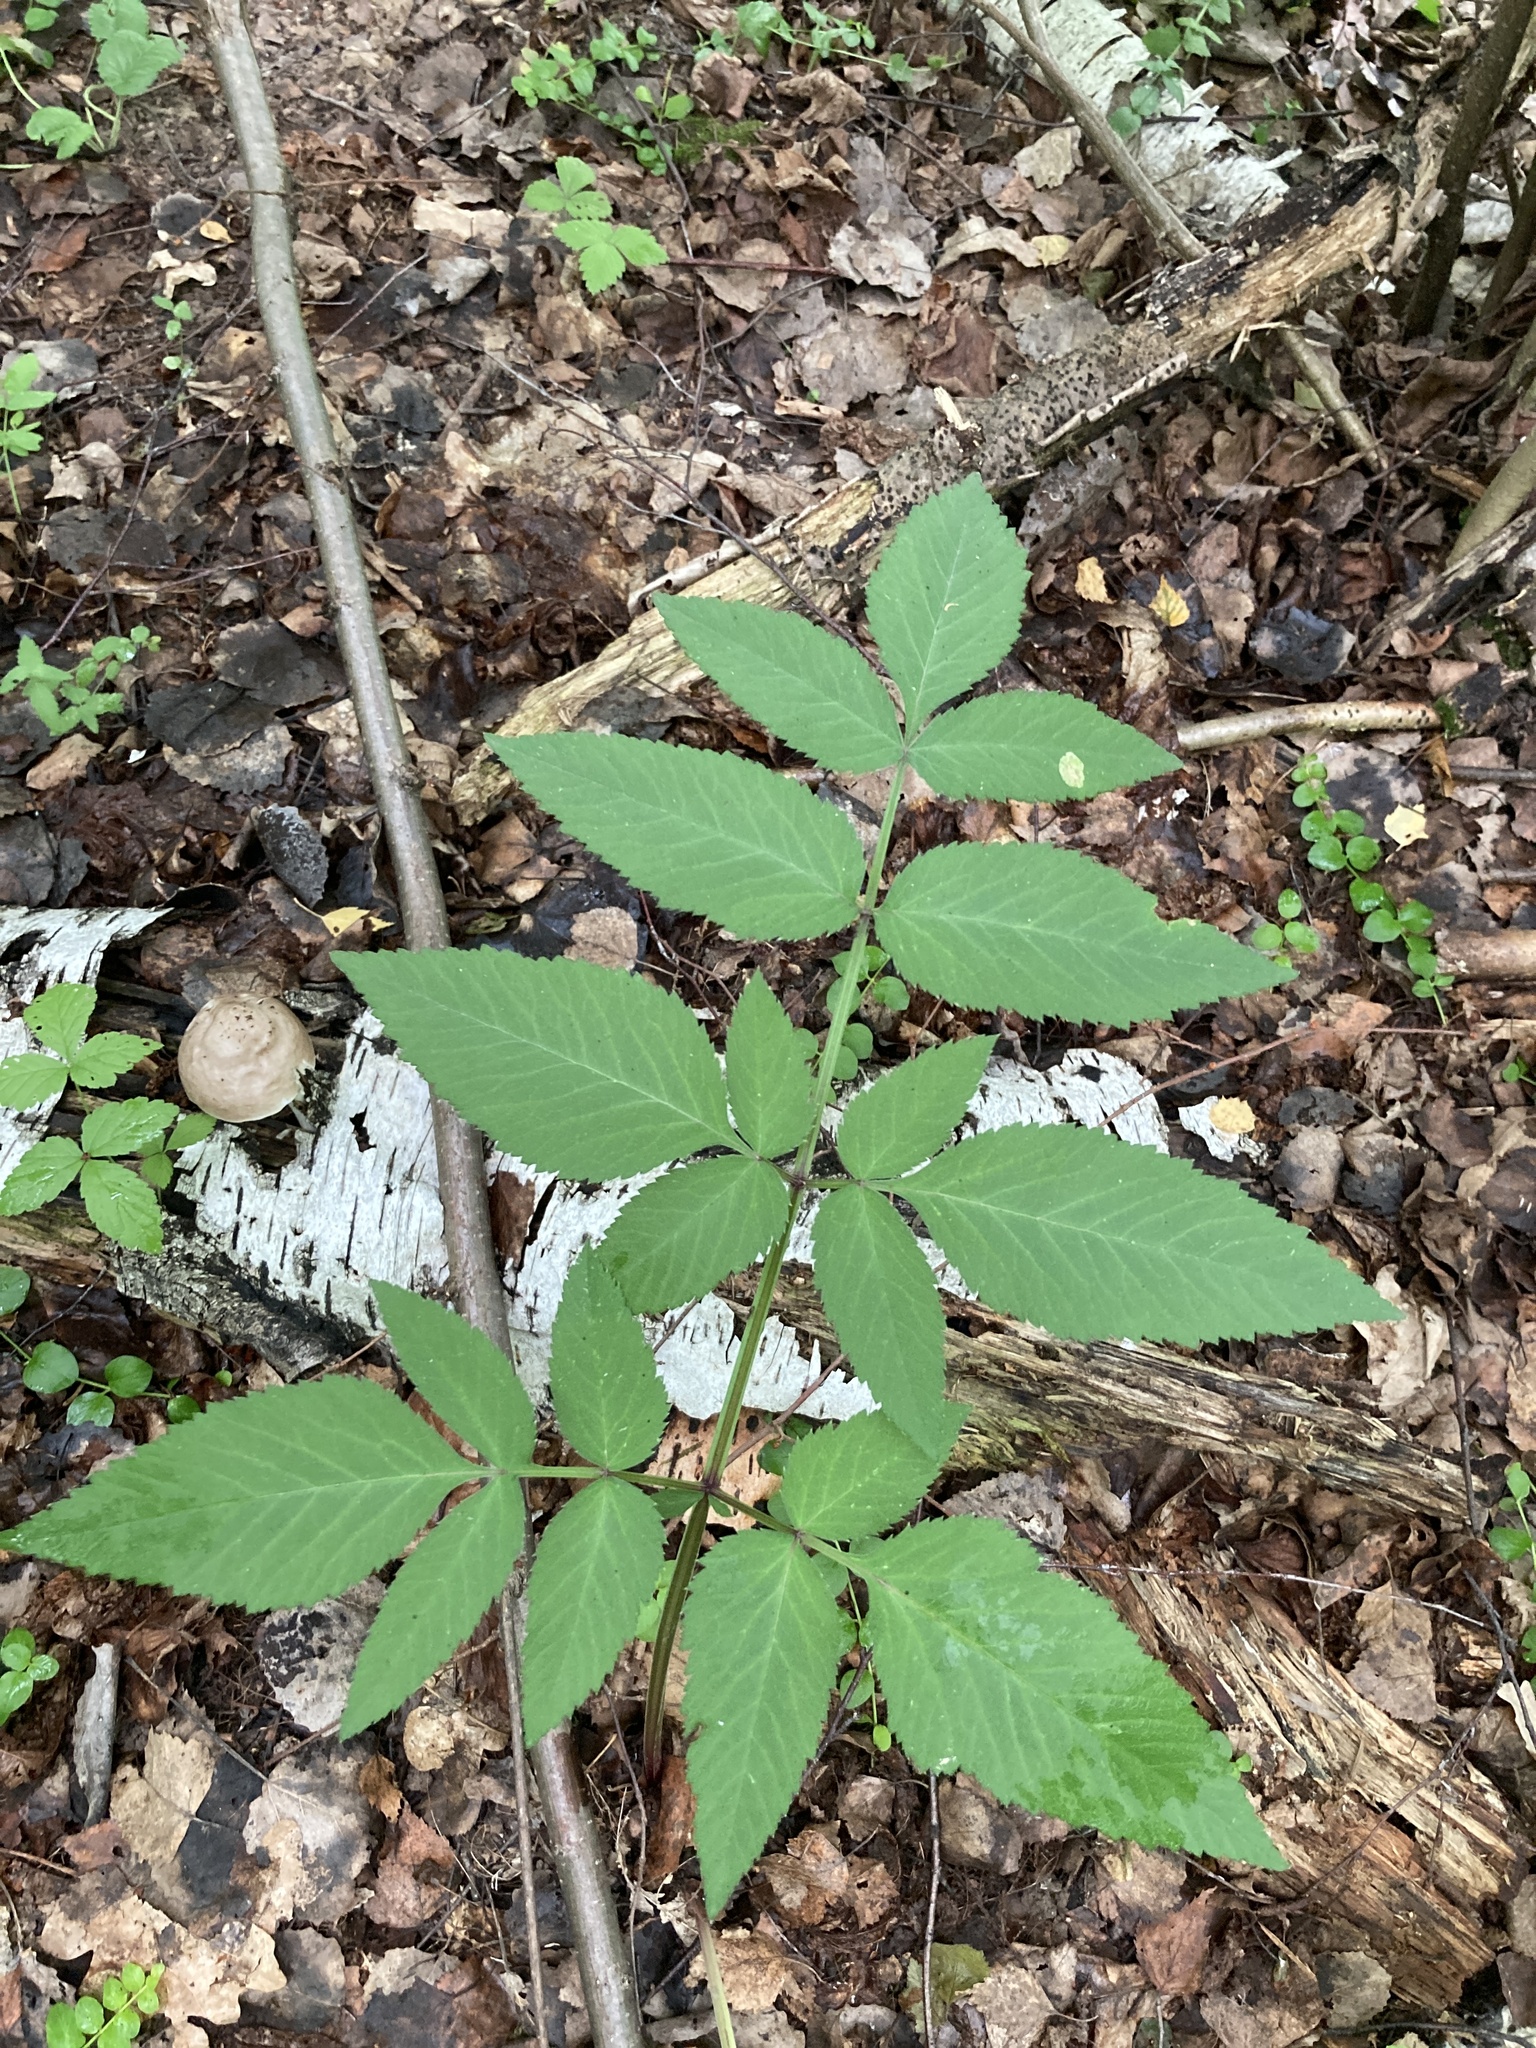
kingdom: Plantae
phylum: Tracheophyta
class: Magnoliopsida
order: Apiales
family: Apiaceae
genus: Angelica
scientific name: Angelica sylvestris
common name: Wild angelica
